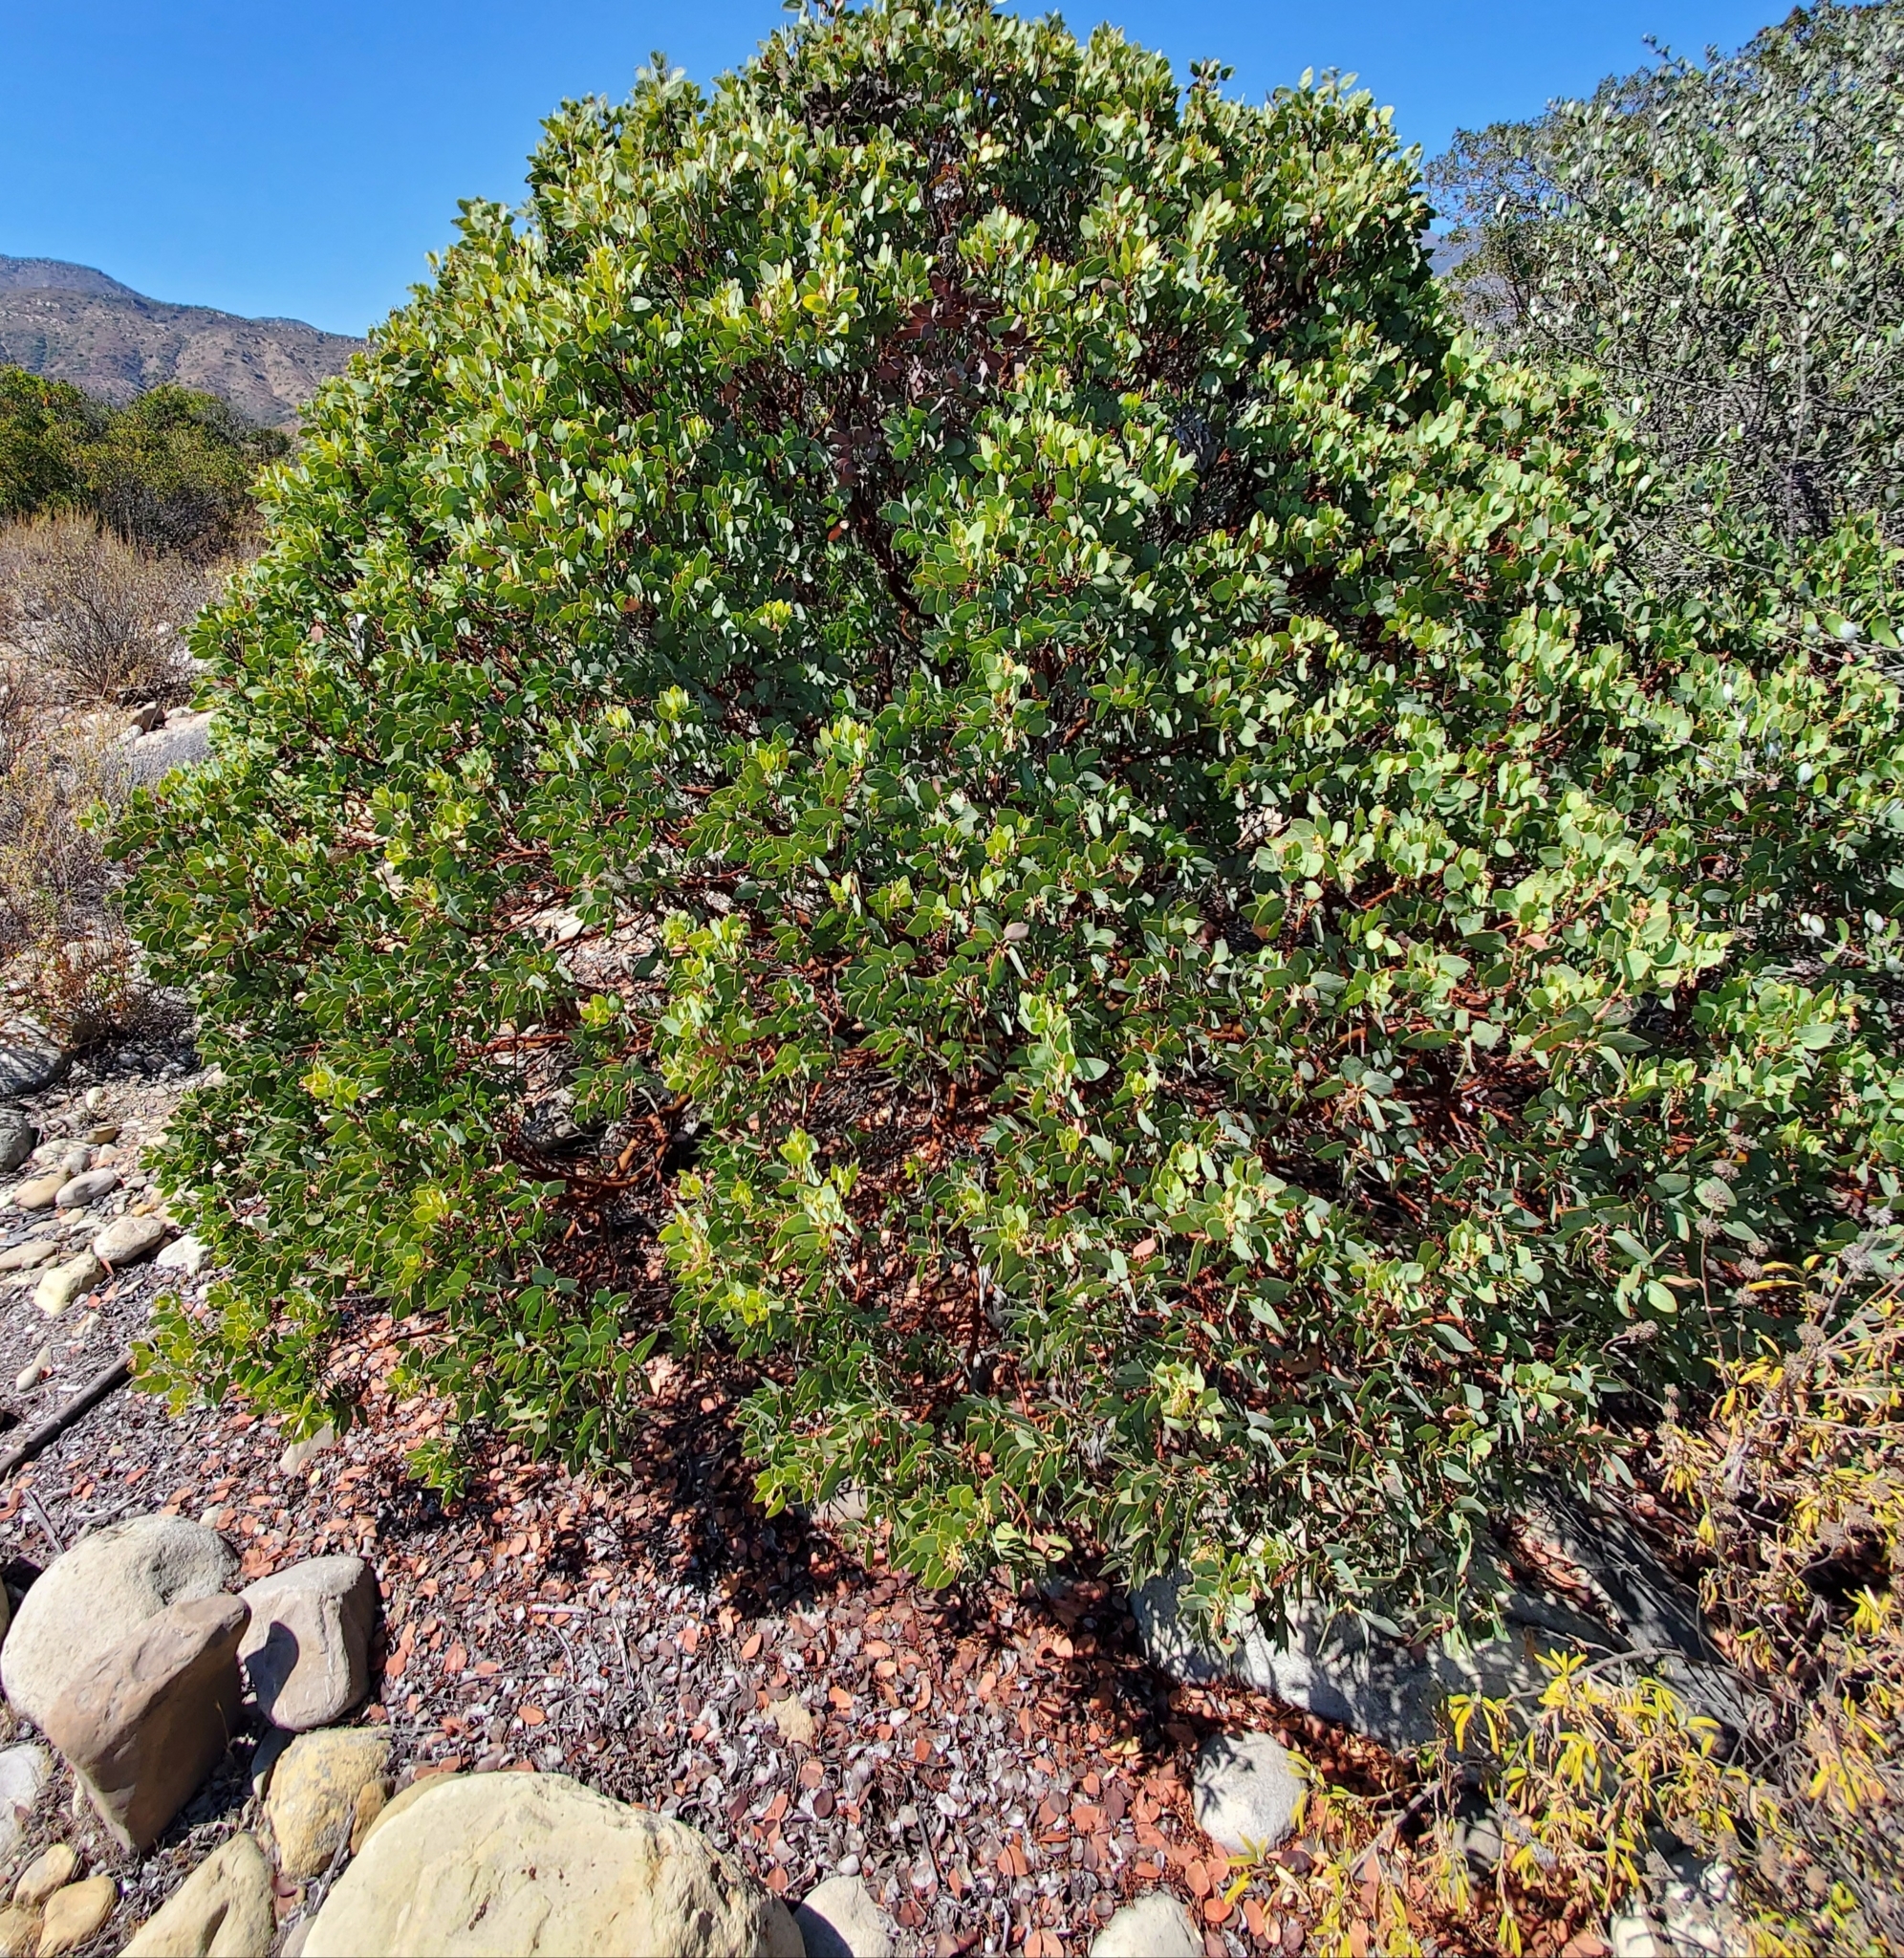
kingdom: Plantae
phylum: Tracheophyta
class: Magnoliopsida
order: Ericales
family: Ericaceae
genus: Arctostaphylos
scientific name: Arctostaphylos glauca
